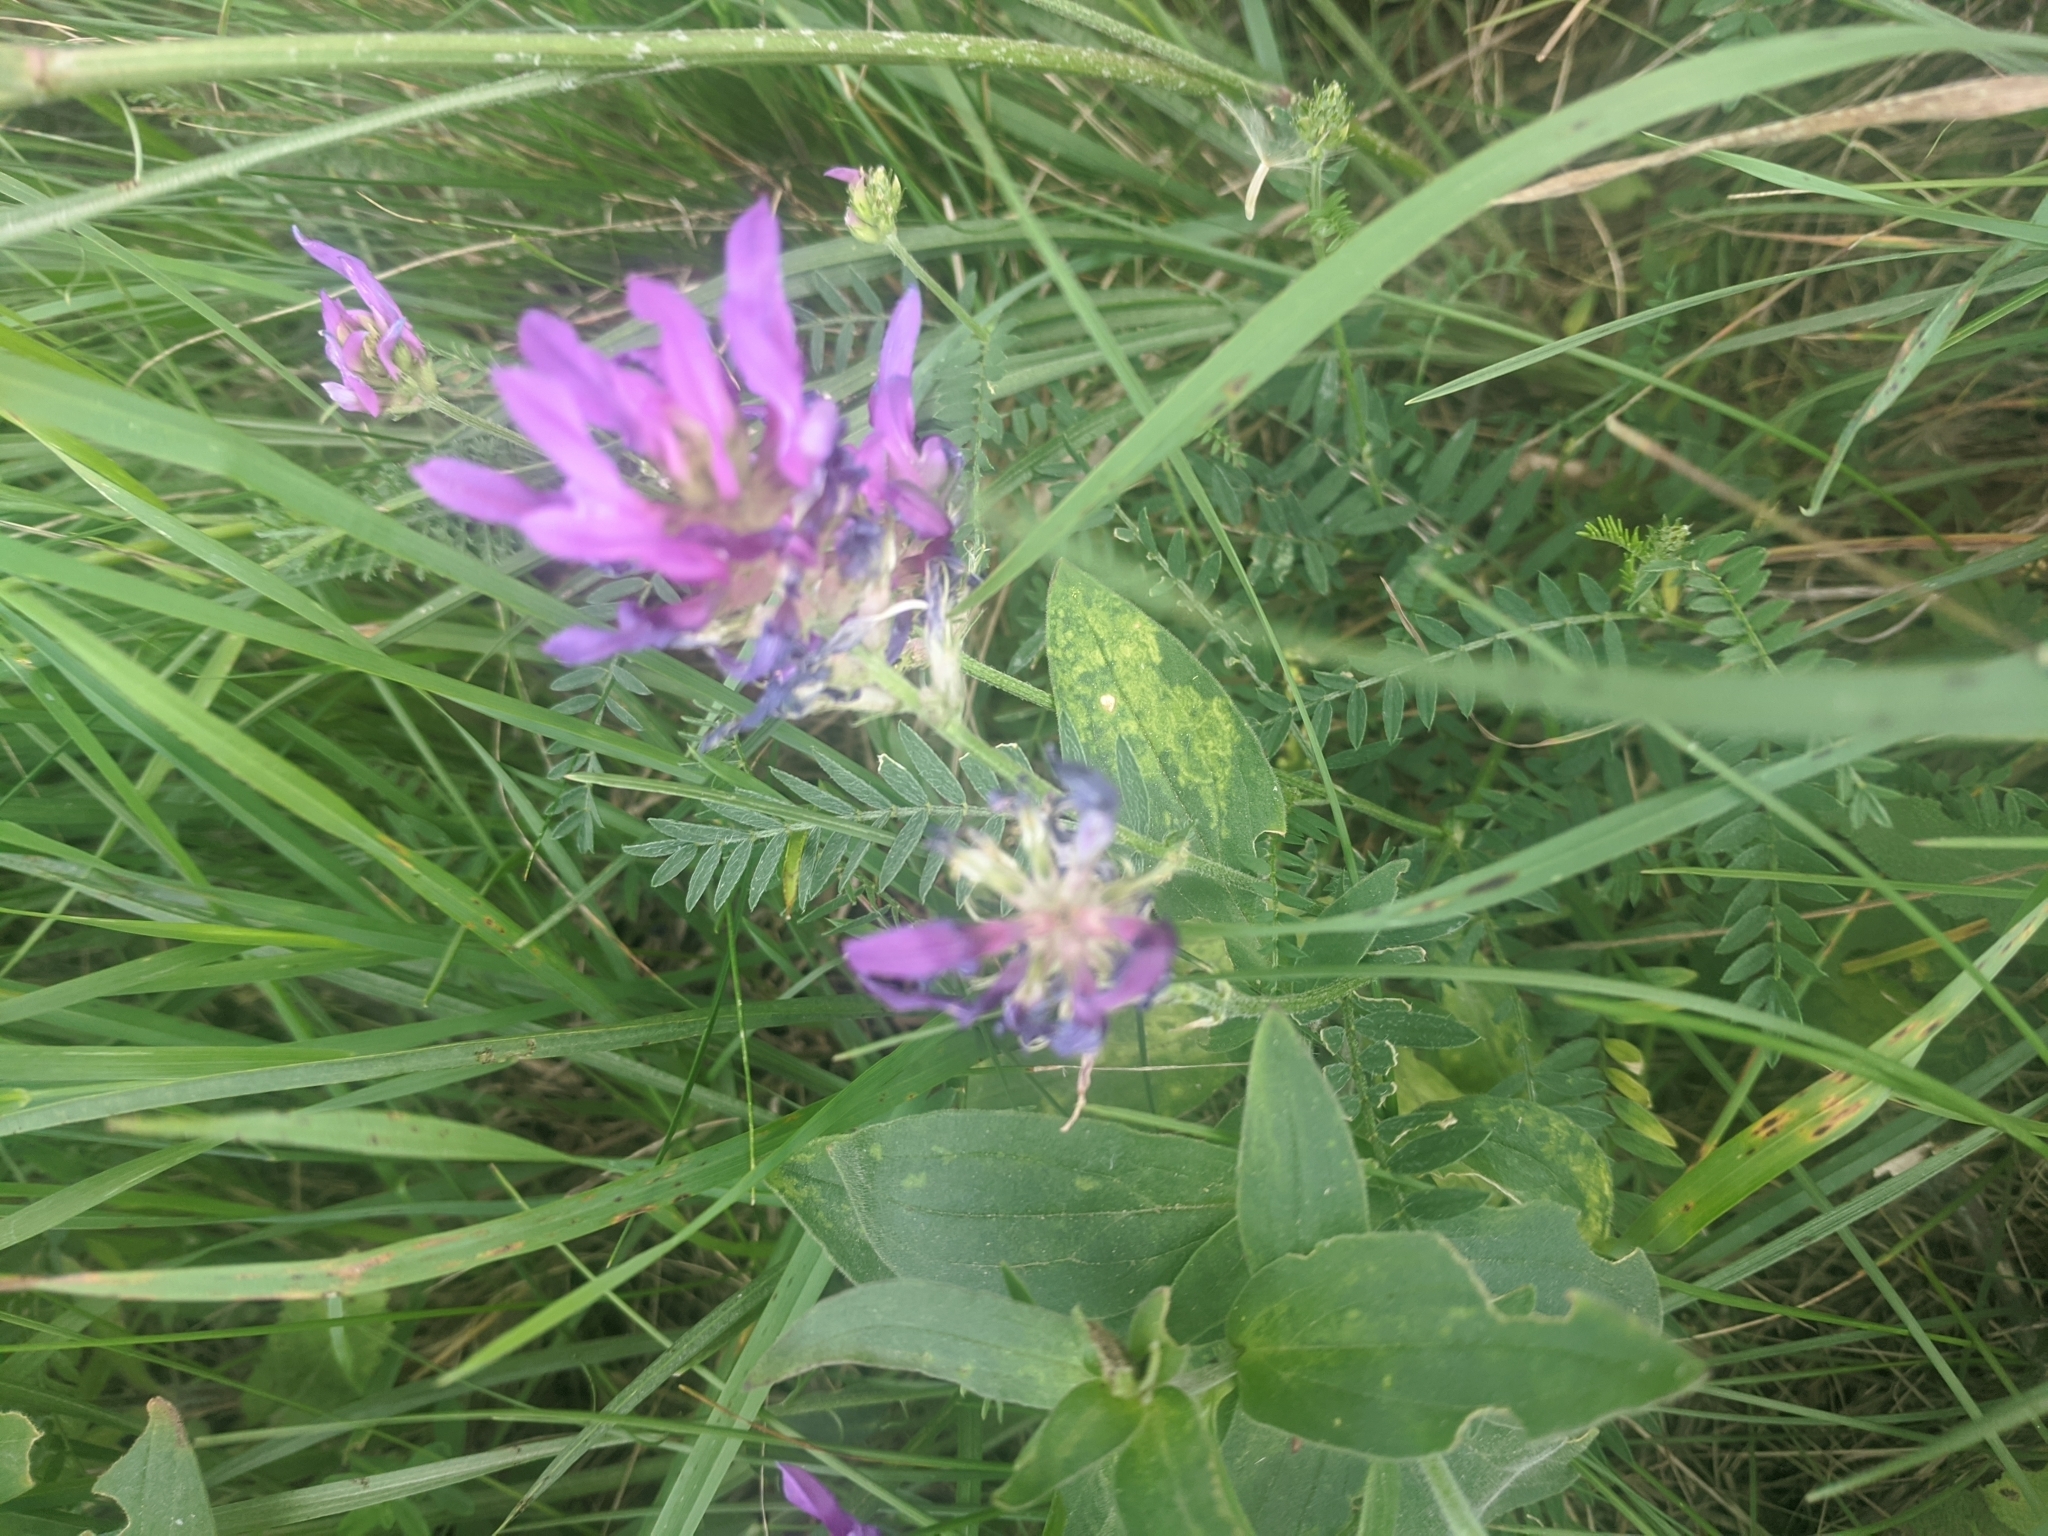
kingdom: Plantae
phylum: Tracheophyta
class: Magnoliopsida
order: Fabales
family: Fabaceae
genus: Astragalus
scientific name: Astragalus onobrychis
